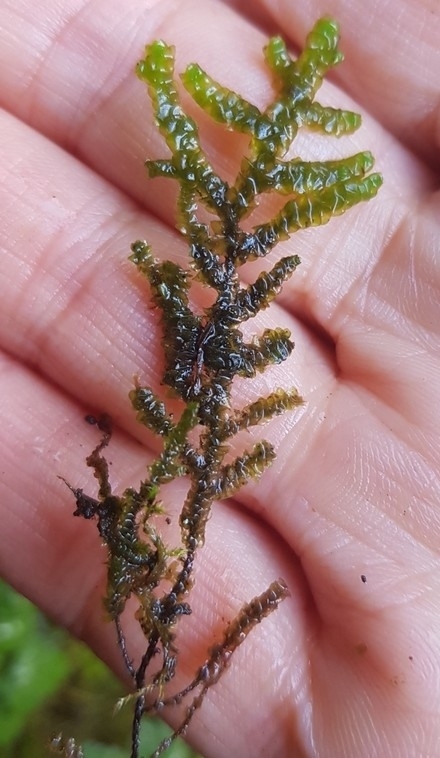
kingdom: Plantae
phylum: Marchantiophyta
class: Jungermanniopsida
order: Porellales
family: Porellaceae
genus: Porella
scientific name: Porella platyphylla
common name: Wall scalewort
